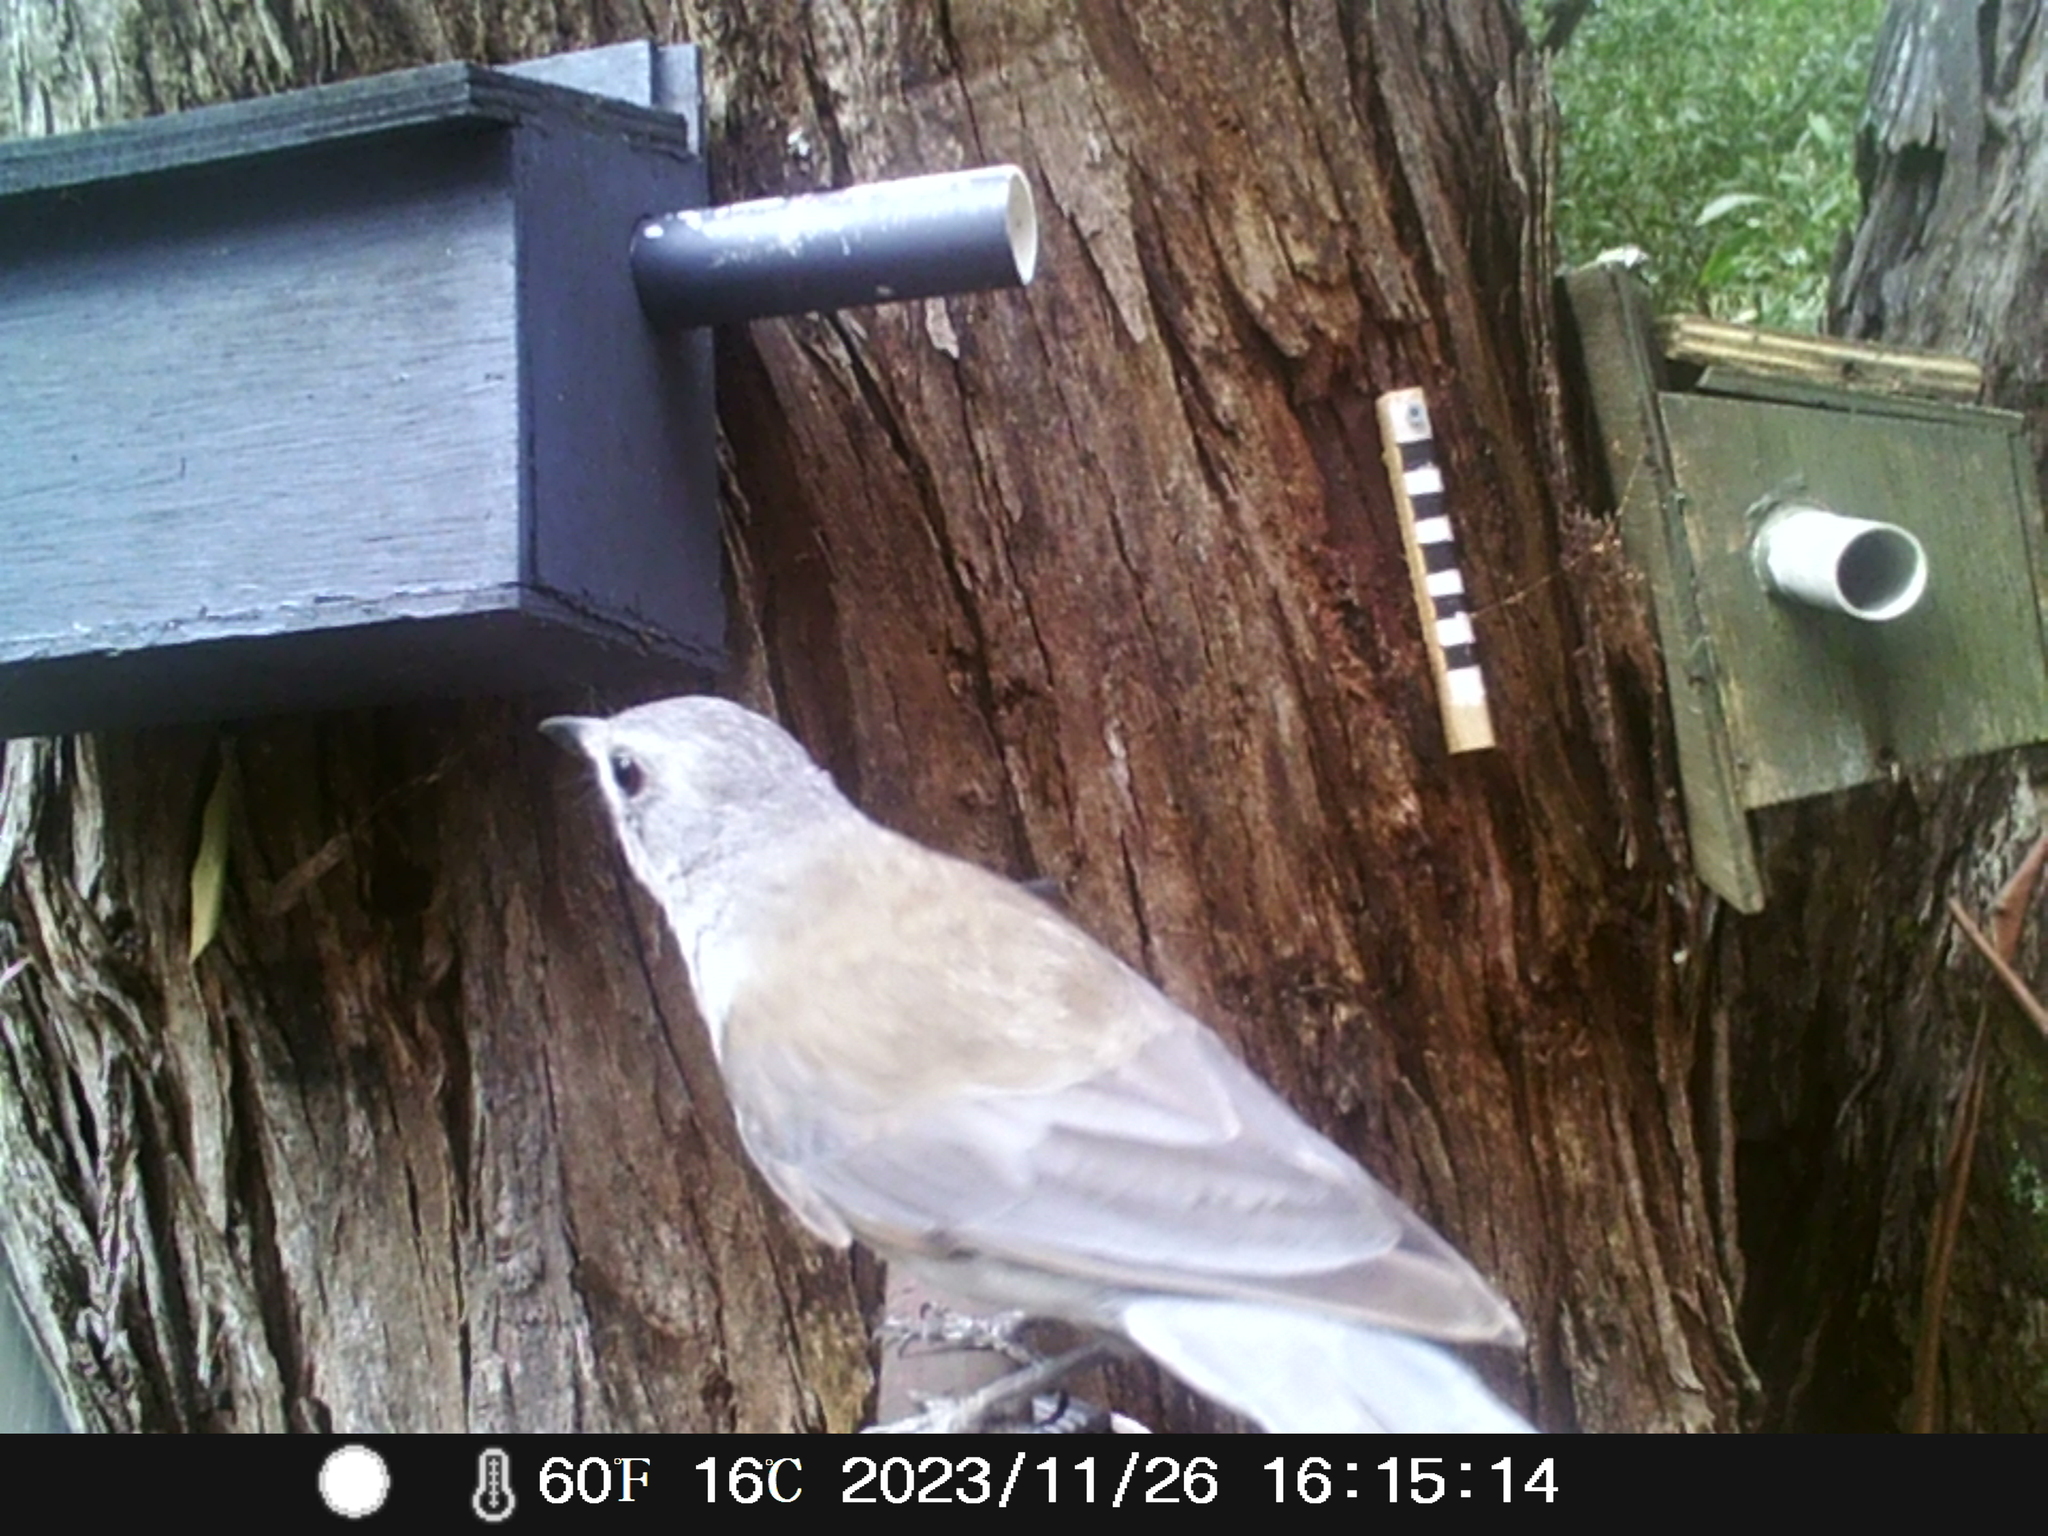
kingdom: Animalia
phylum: Chordata
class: Aves
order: Passeriformes
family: Pachycephalidae
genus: Colluricincla
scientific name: Colluricincla harmonica
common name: Grey shrikethrush
